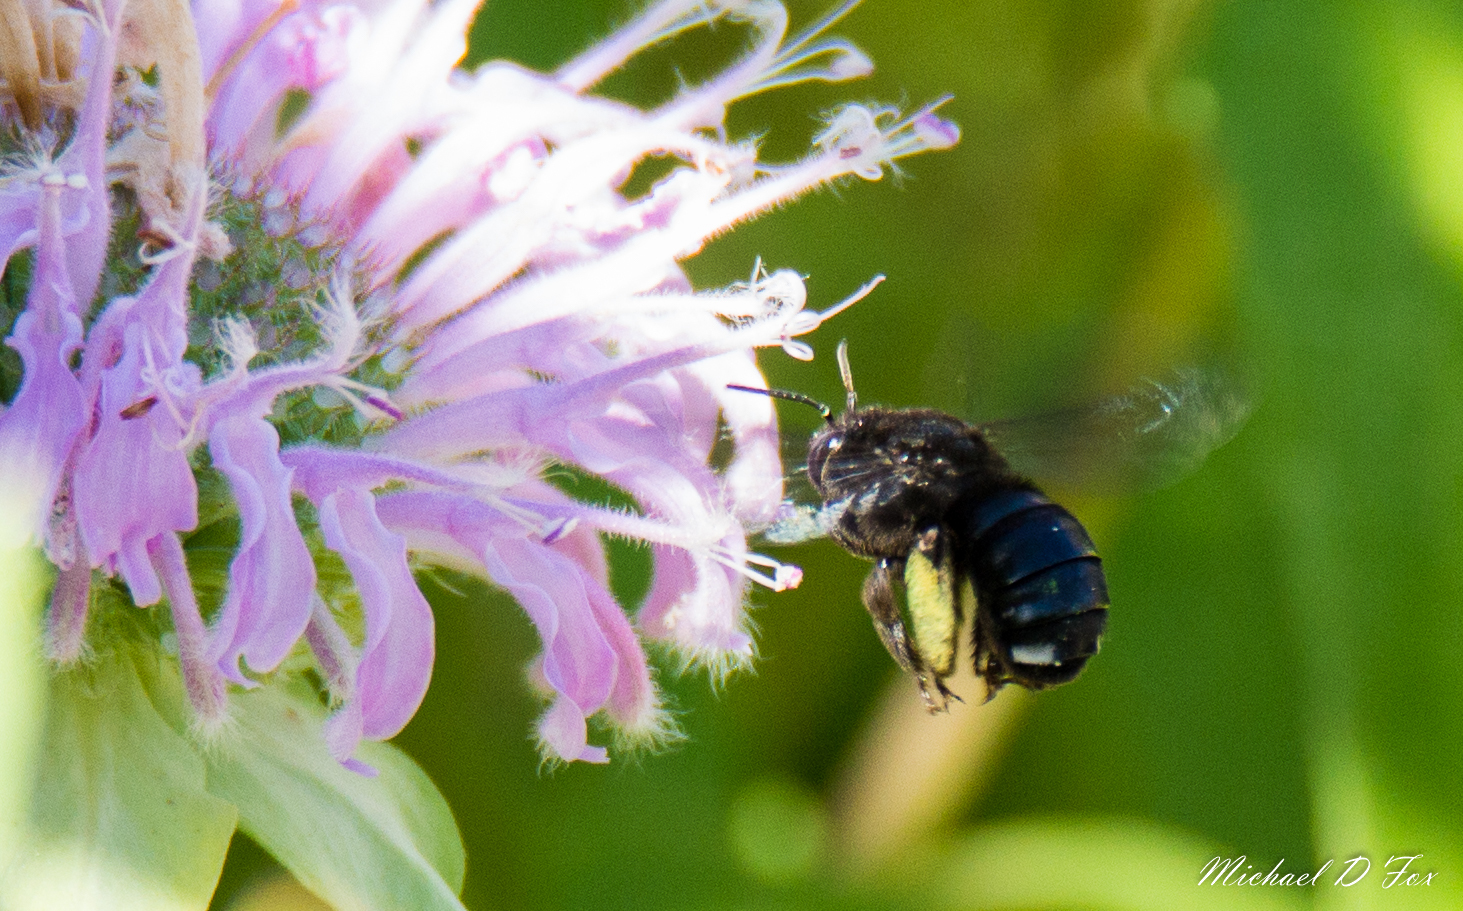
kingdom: Animalia
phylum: Arthropoda
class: Insecta
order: Hymenoptera
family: Apidae
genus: Melissodes
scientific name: Melissodes bimaculatus
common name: Two-spotted long-horned bee
